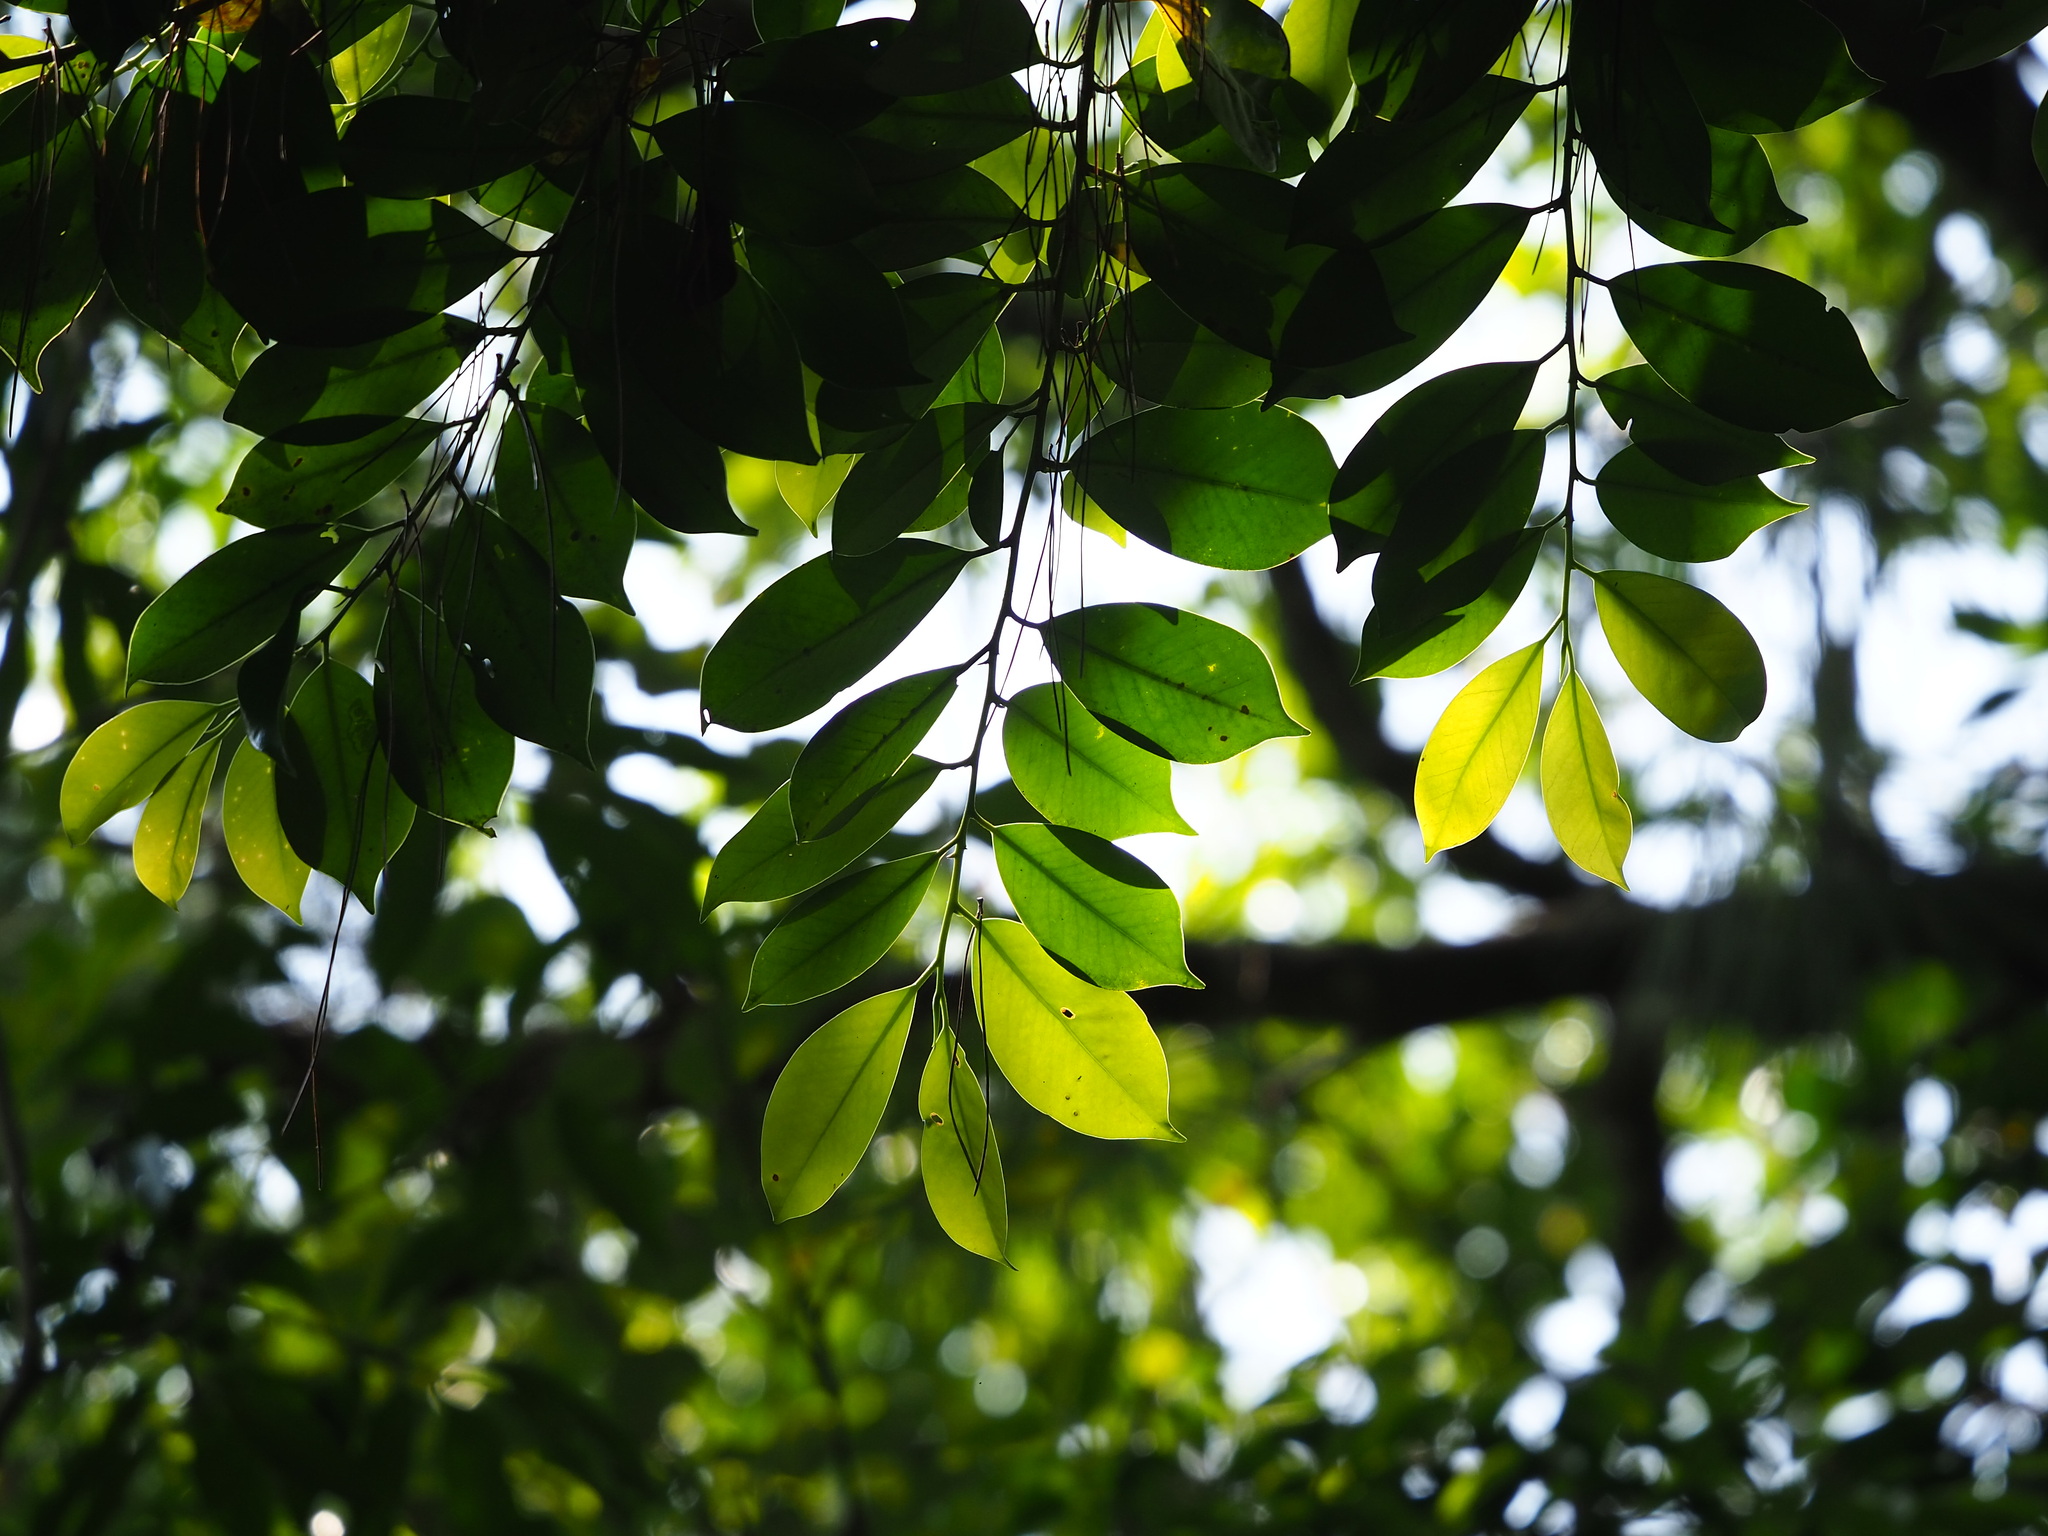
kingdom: Plantae
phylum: Tracheophyta
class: Magnoliopsida
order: Ericales
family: Pentaphylacaceae
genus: Cleyera
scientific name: Cleyera japonica
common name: Sakaki
